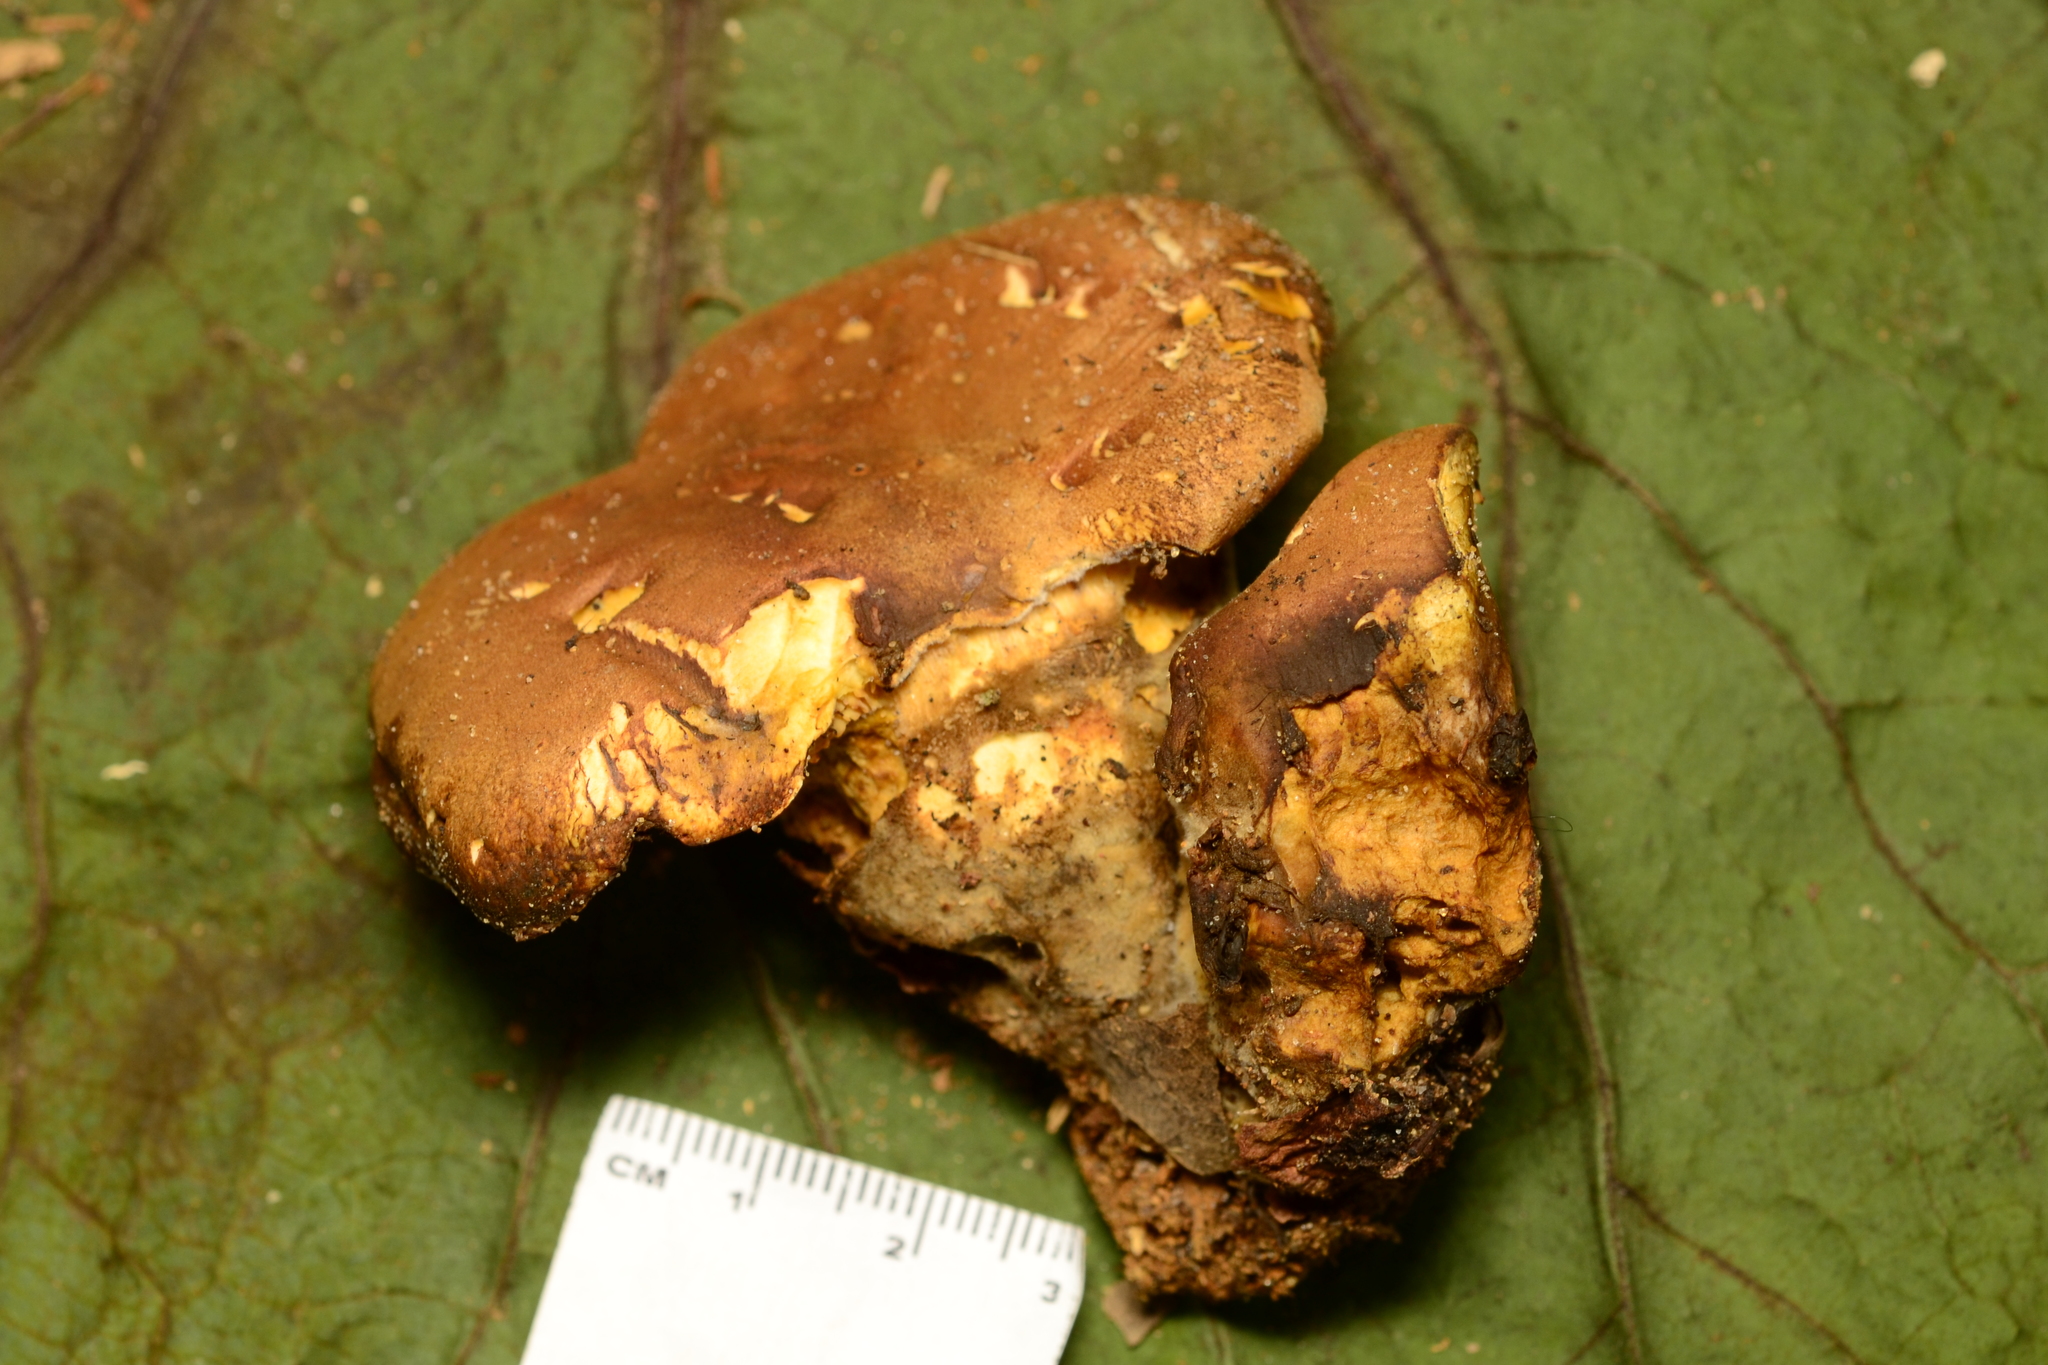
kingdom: Fungi
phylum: Basidiomycota
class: Agaricomycetes
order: Boletales
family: Tapinellaceae
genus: Tapinella
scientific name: Tapinella atrotomentosa
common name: Velvet rollrim
